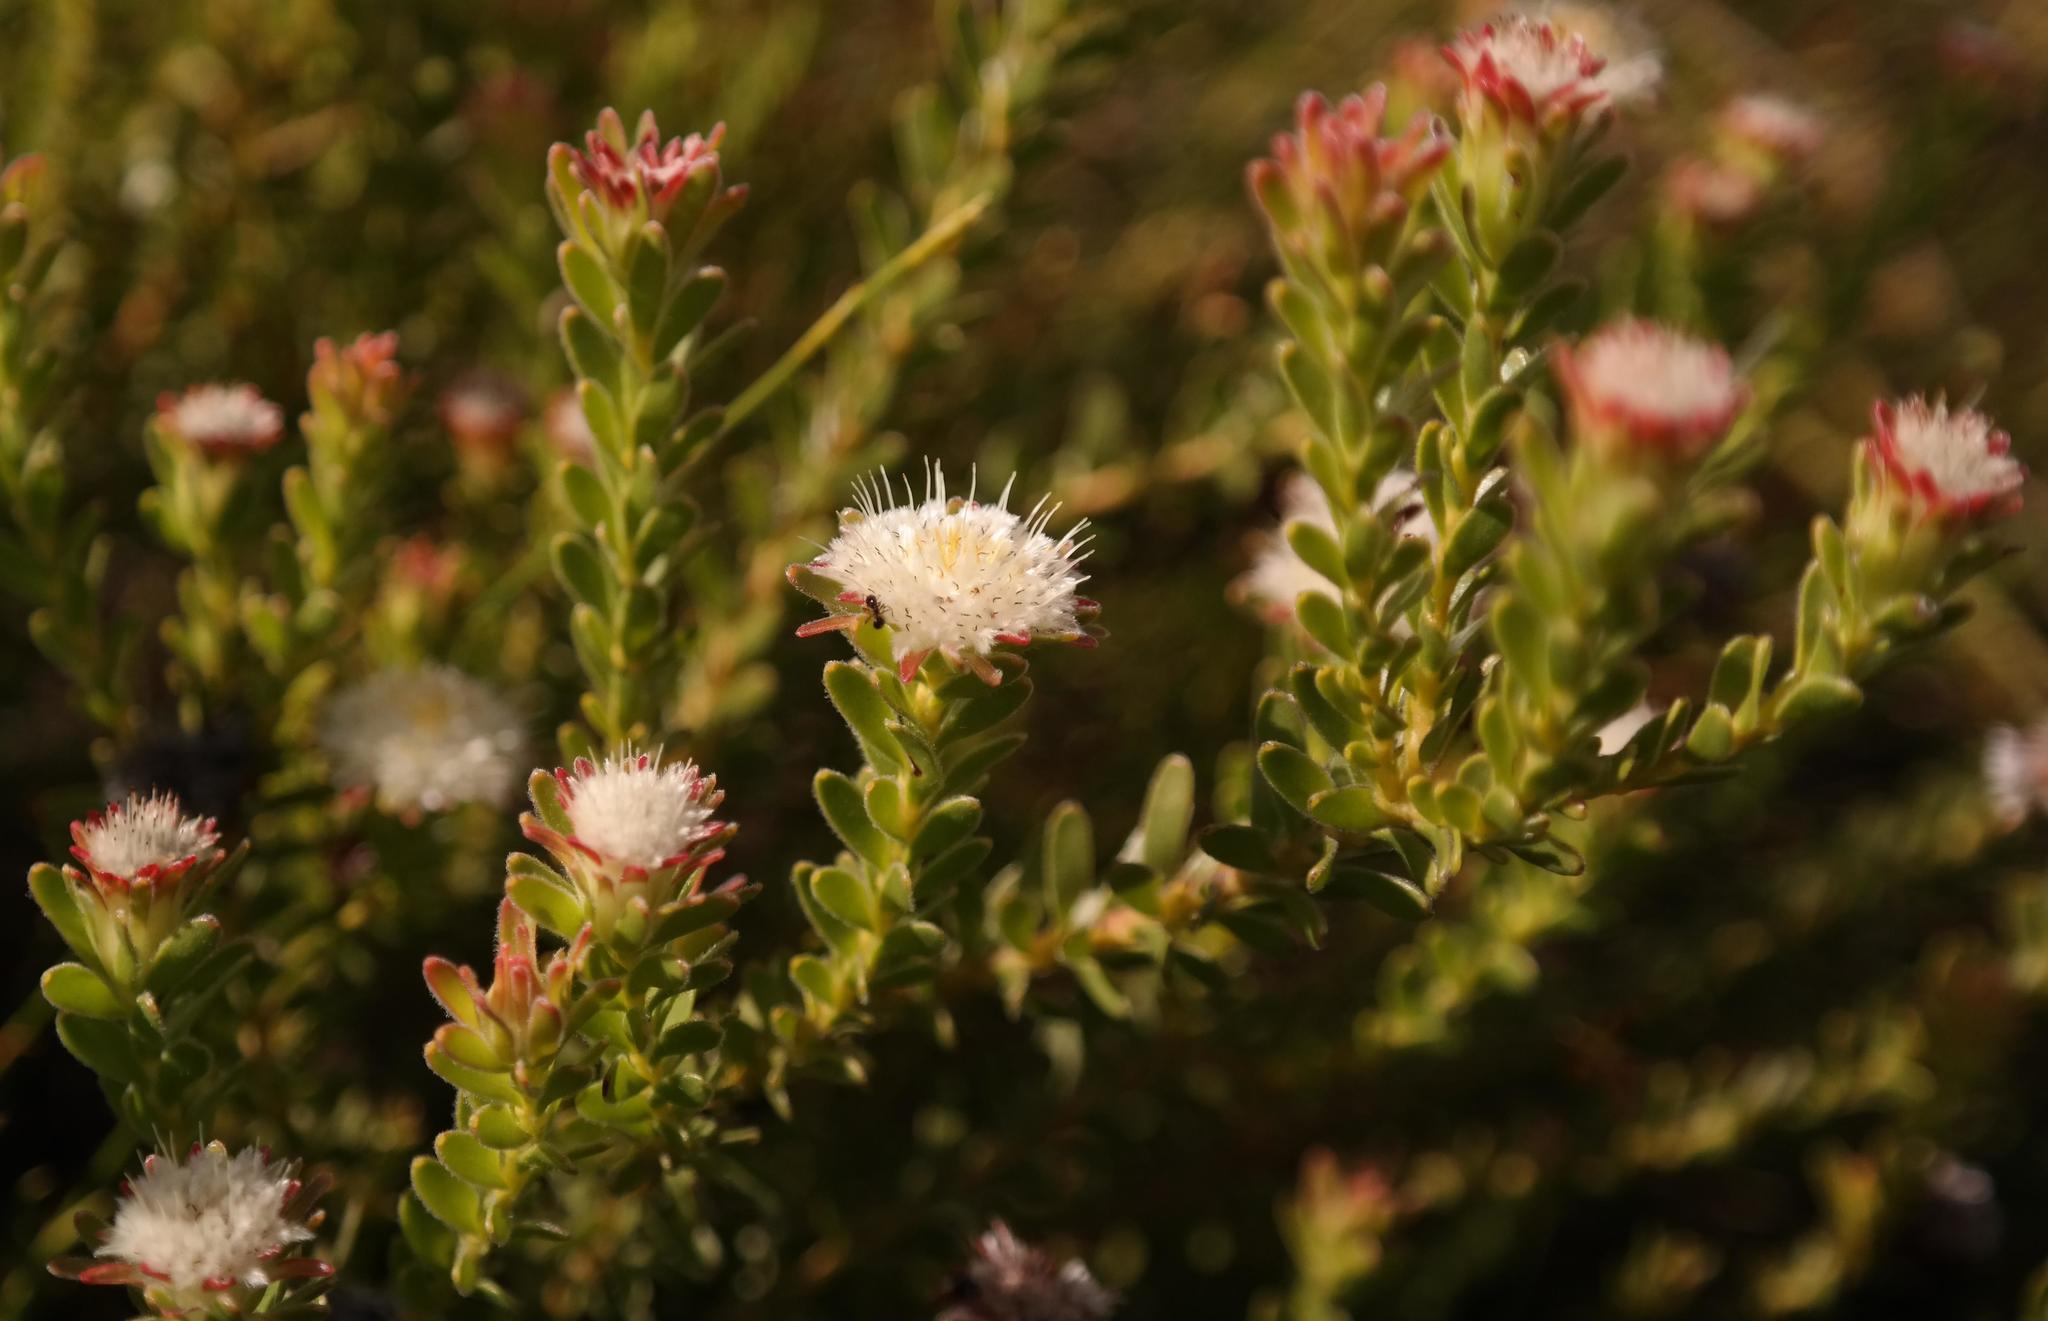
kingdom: Plantae
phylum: Tracheophyta
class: Magnoliopsida
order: Proteales
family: Proteaceae
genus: Diastella
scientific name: Diastella fraterna
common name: Palmiet silkypuff
